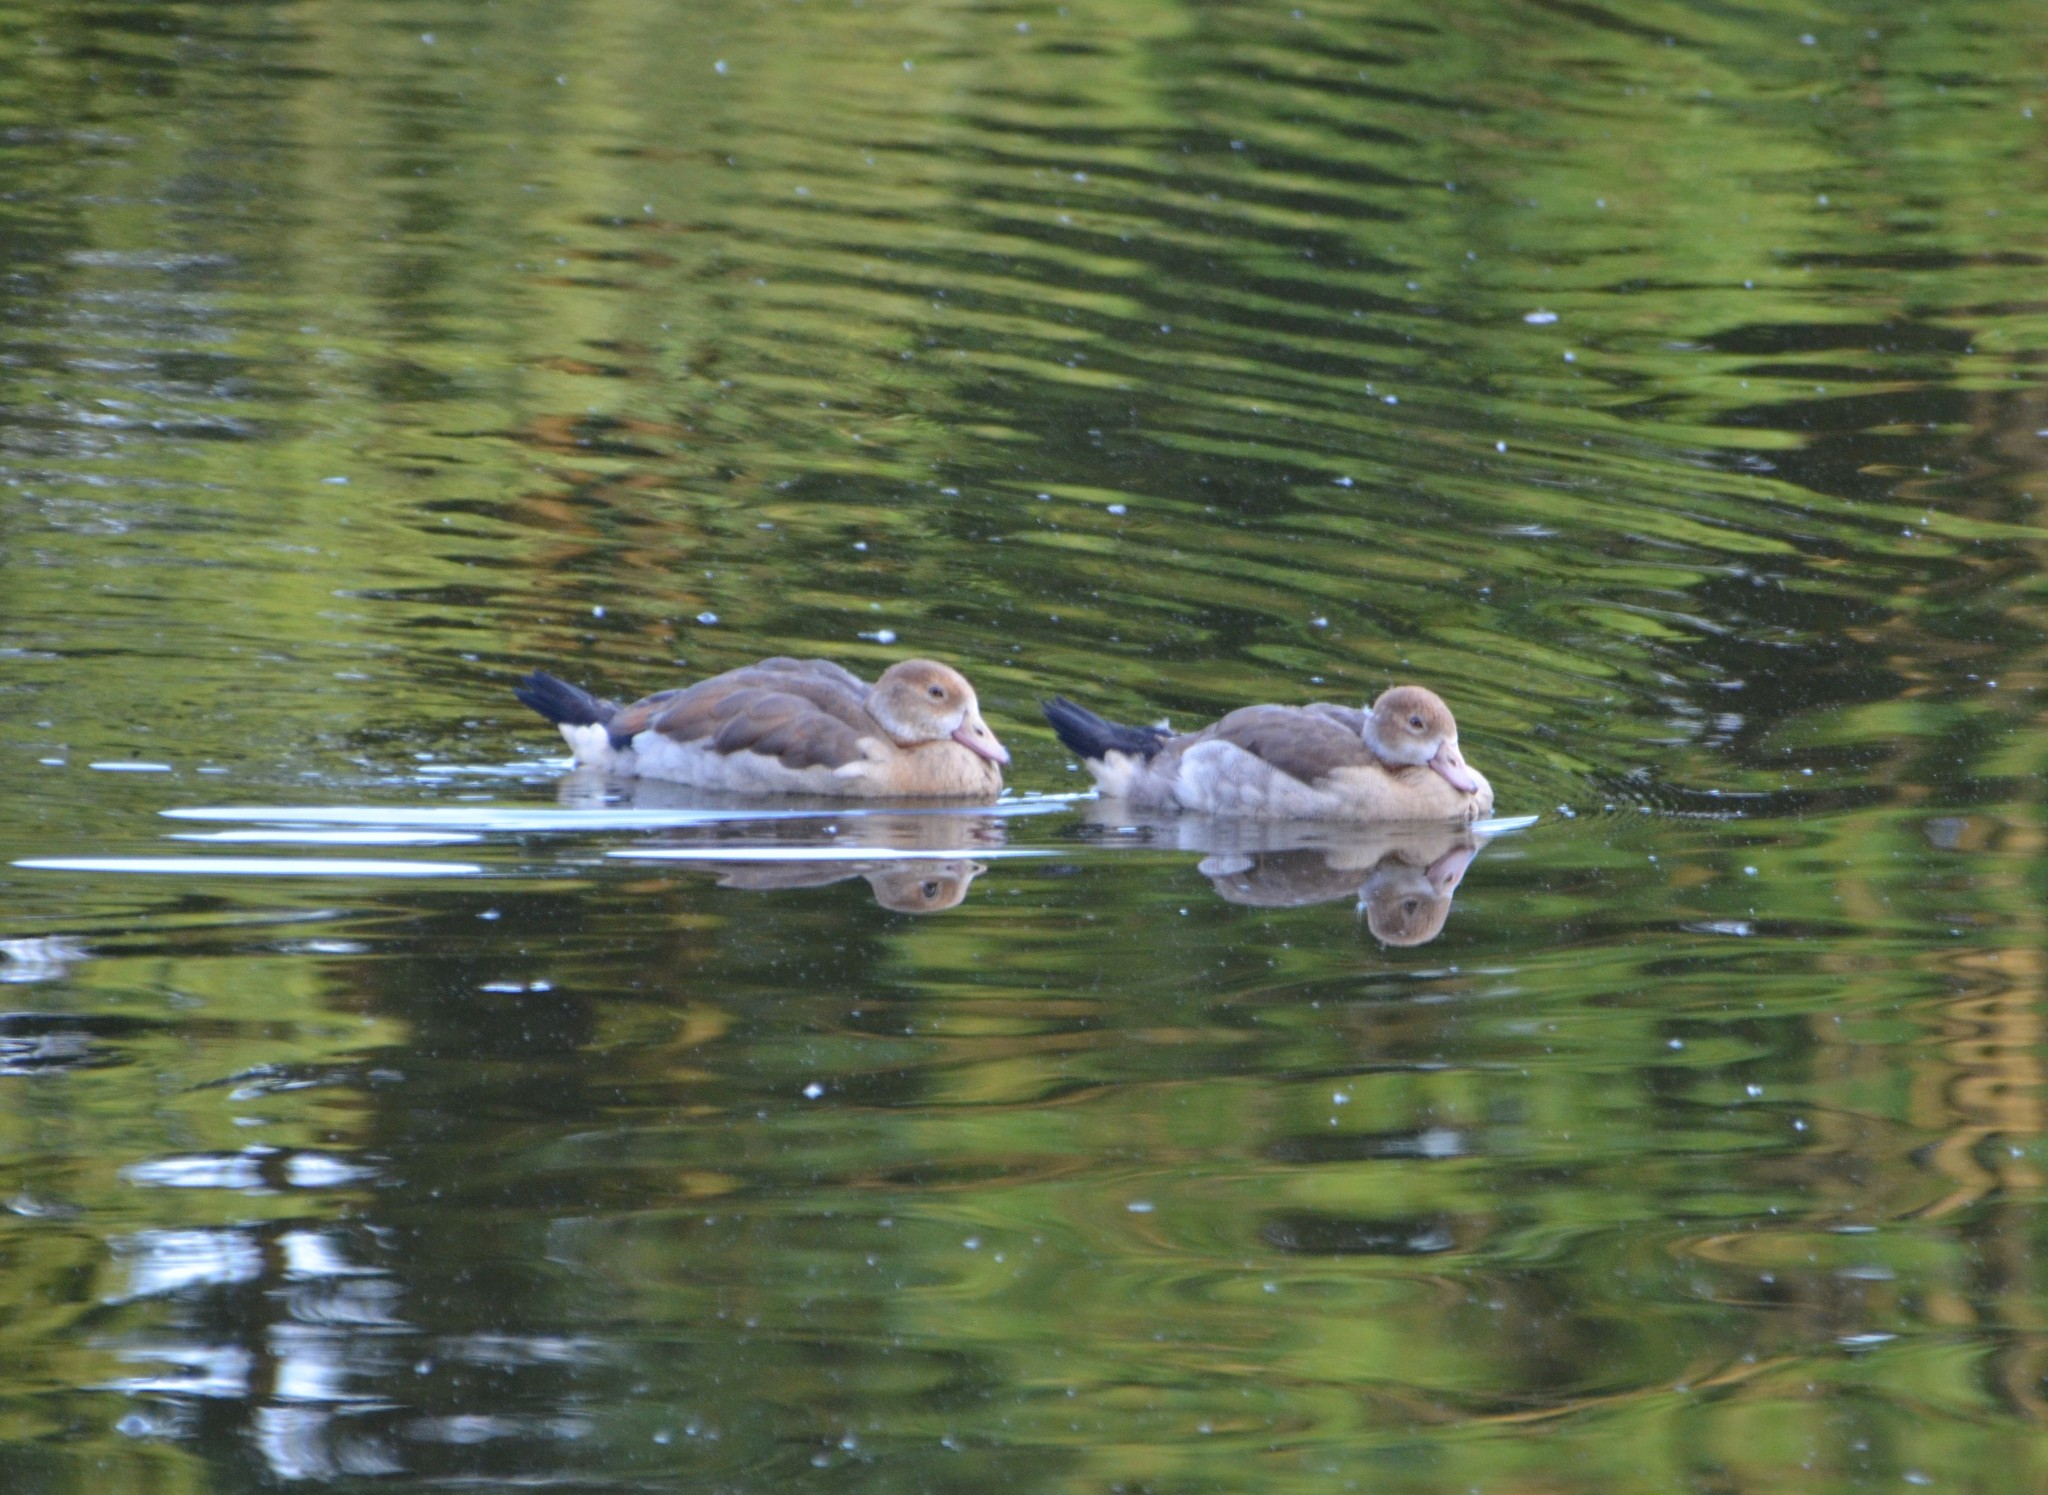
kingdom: Animalia
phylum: Chordata
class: Aves
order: Anseriformes
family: Anatidae
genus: Alopochen
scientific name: Alopochen aegyptiaca
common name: Egyptian goose
